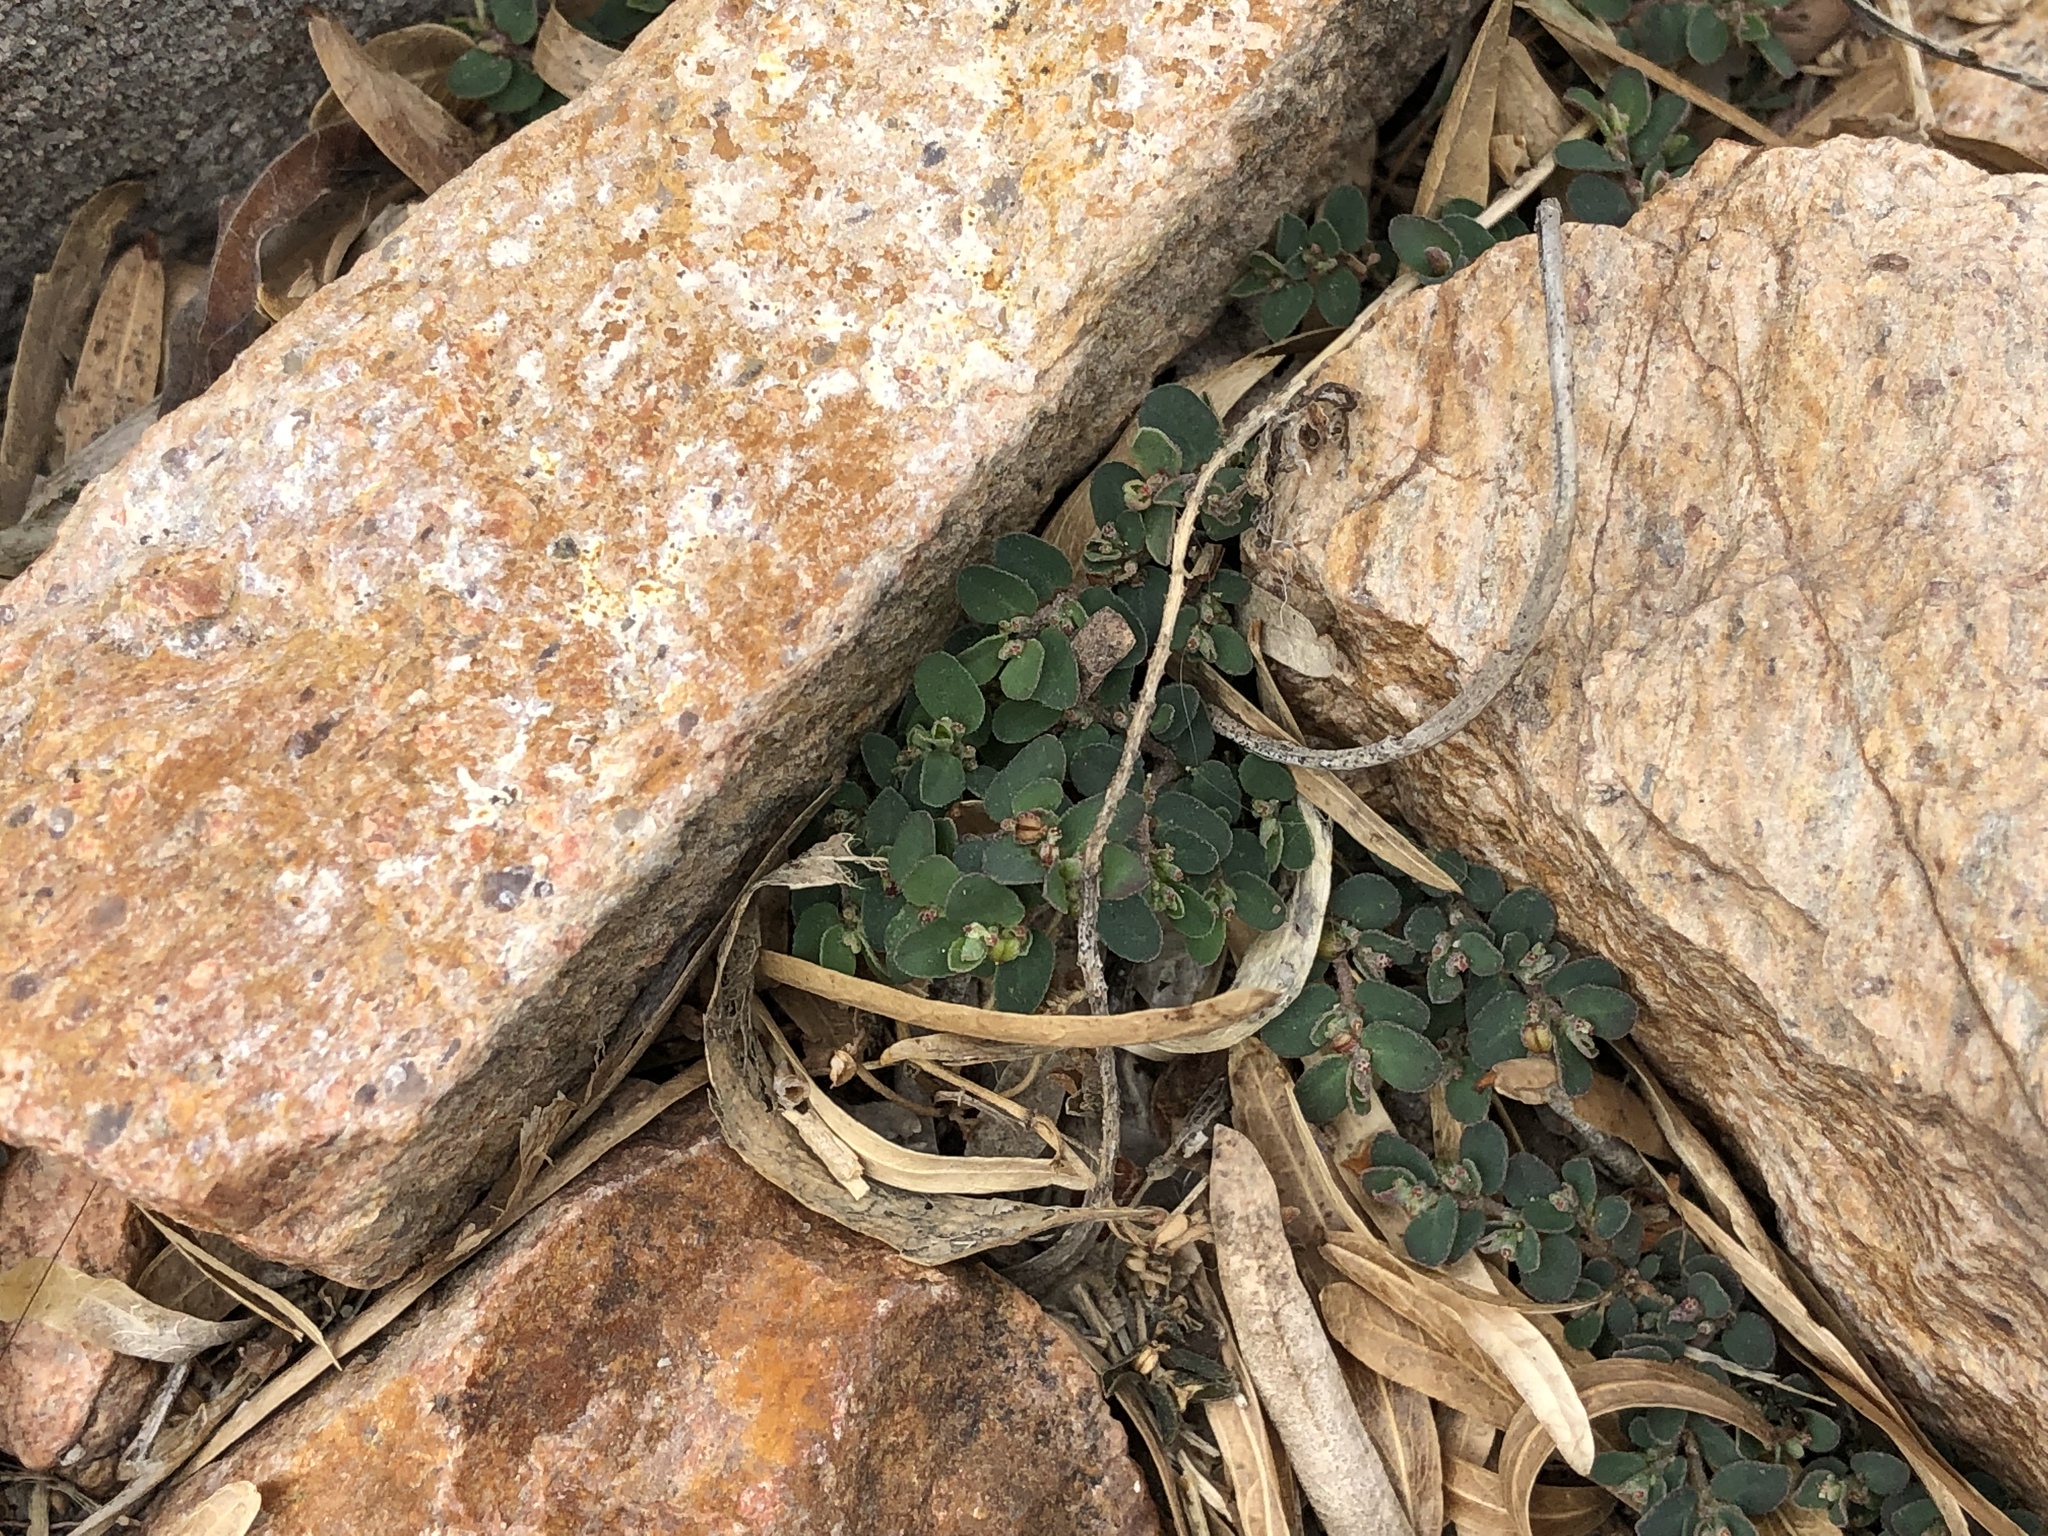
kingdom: Plantae
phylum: Tracheophyta
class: Magnoliopsida
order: Malpighiales
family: Euphorbiaceae
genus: Euphorbia
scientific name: Euphorbia prostrata
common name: Prostrate sandmat
